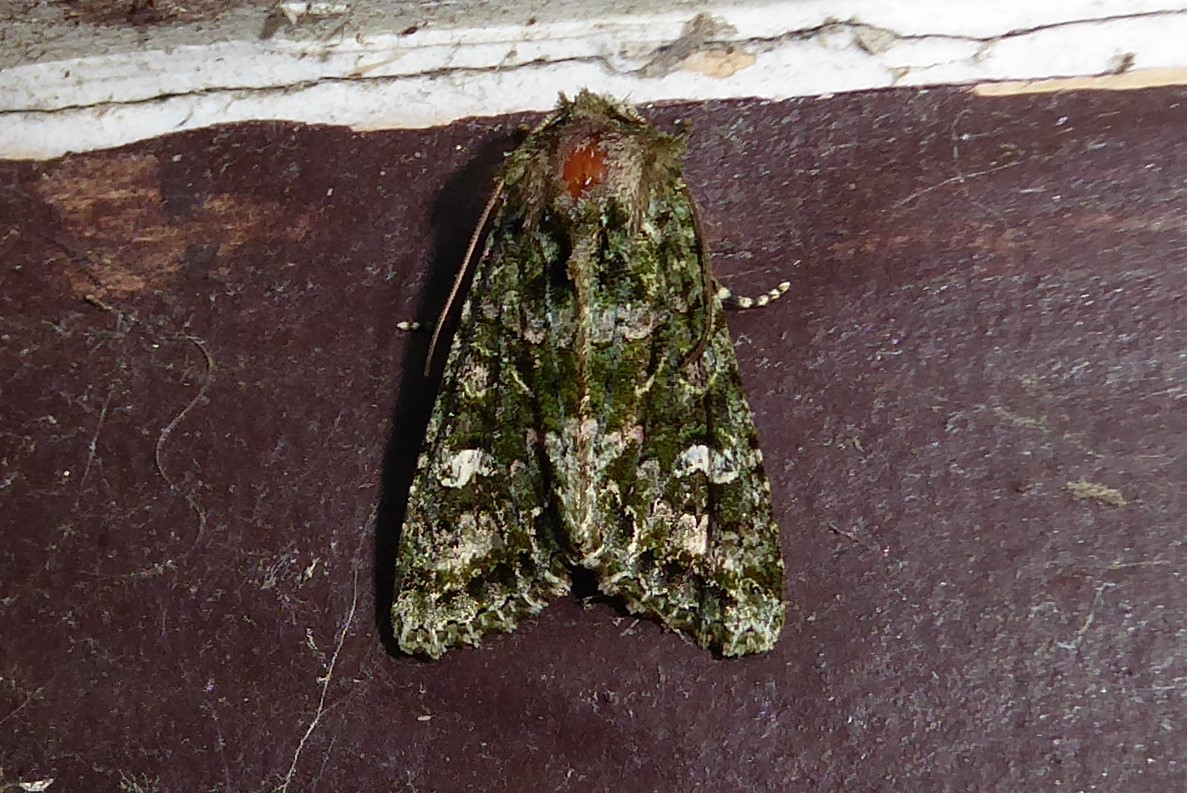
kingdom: Animalia
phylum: Arthropoda
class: Insecta
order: Lepidoptera
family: Noctuidae
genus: Ichneutica
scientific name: Ichneutica
